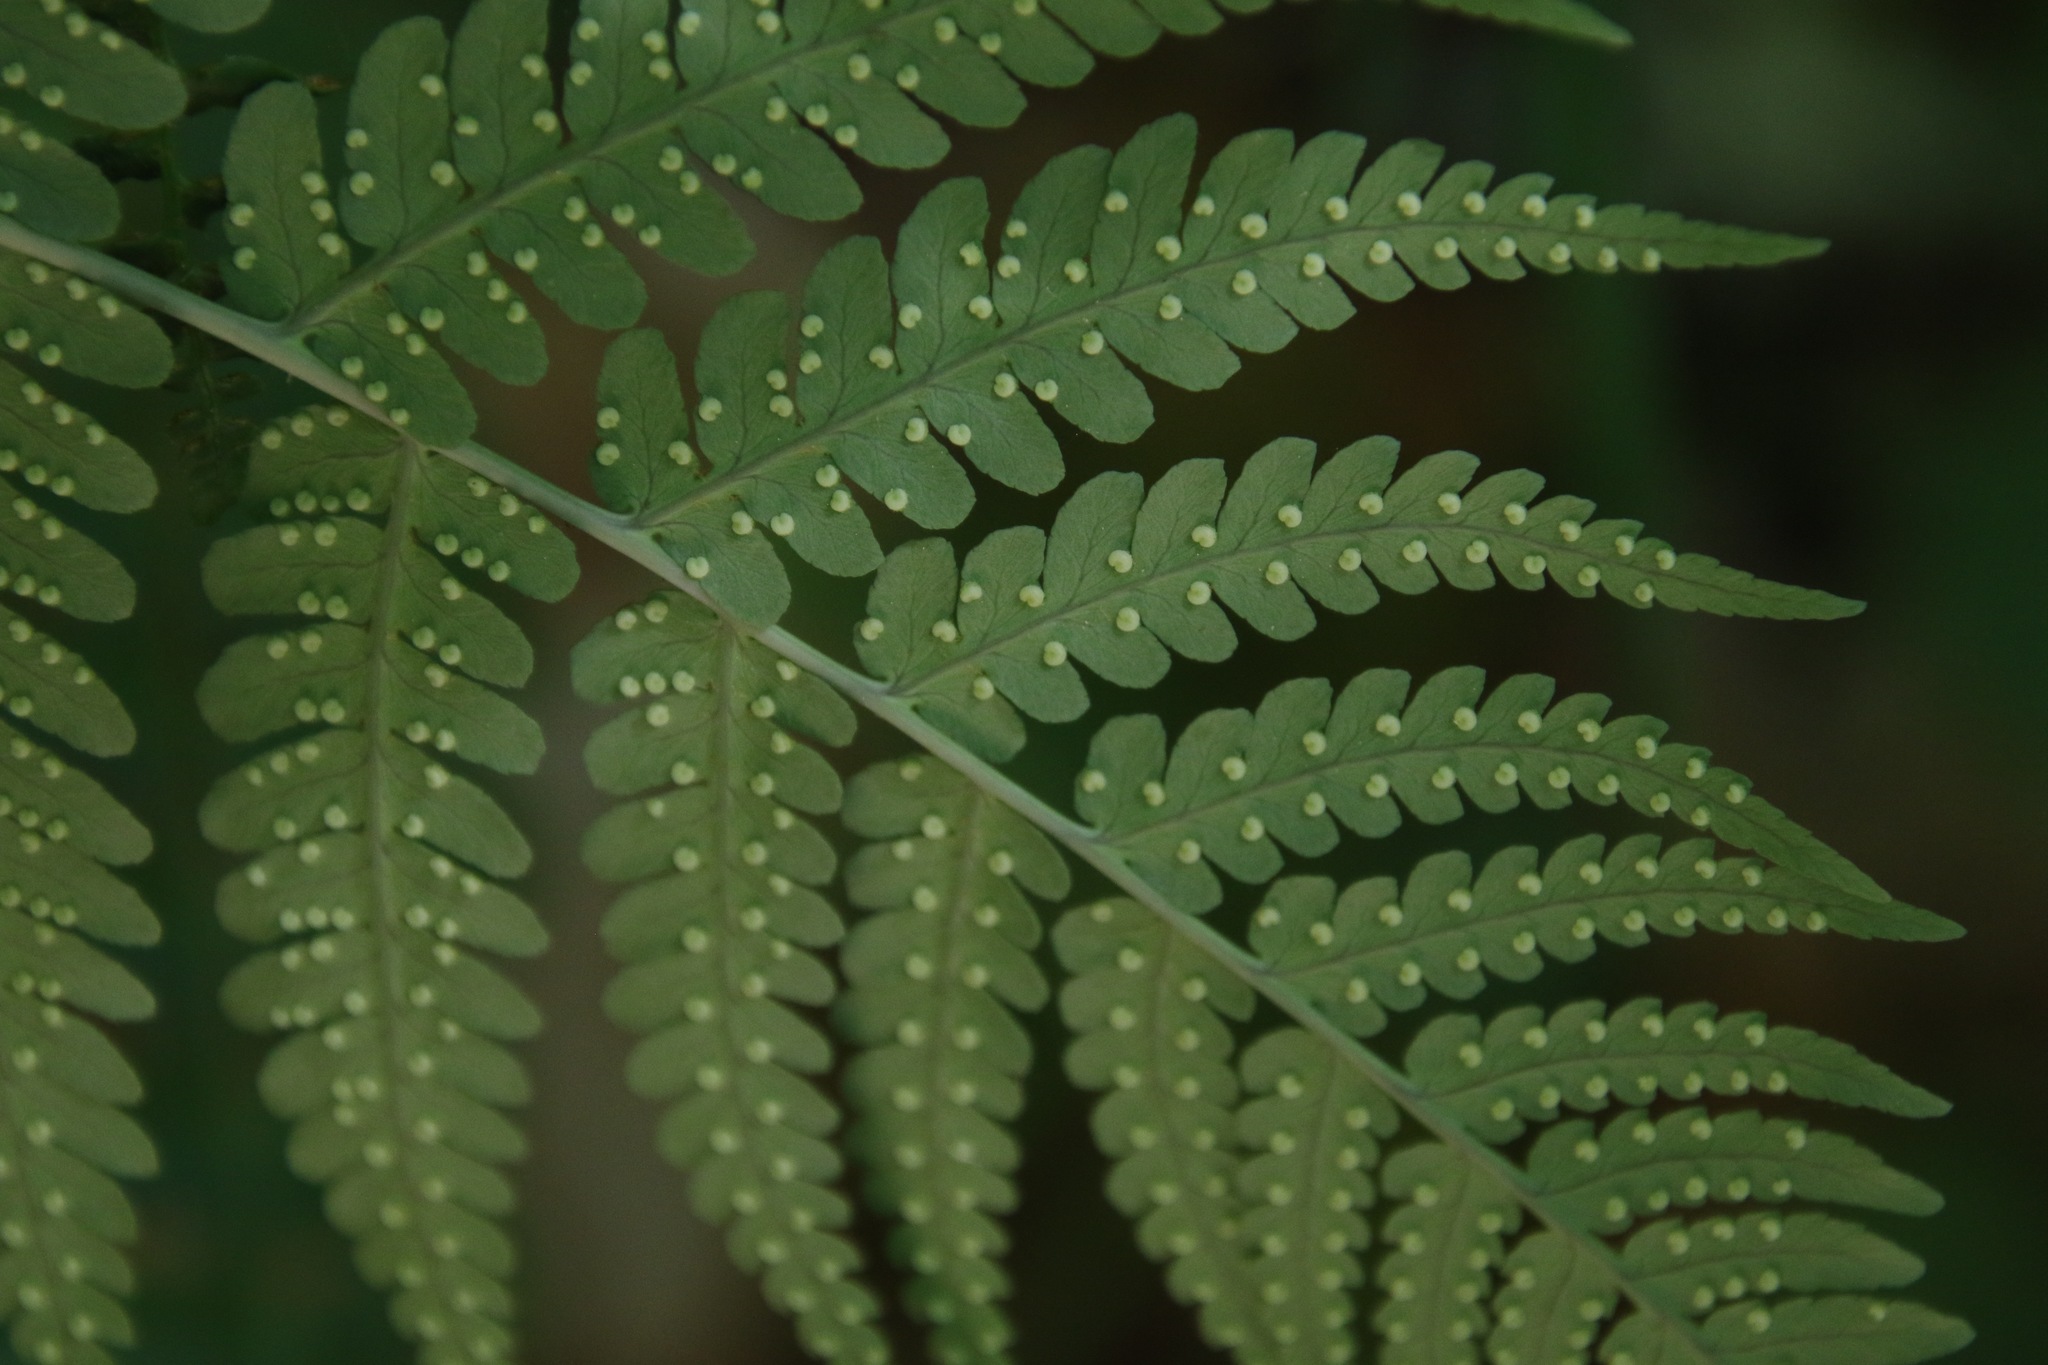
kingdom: Plantae
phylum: Tracheophyta
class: Polypodiopsida
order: Polypodiales
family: Dryopteridaceae
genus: Dryopteris
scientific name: Dryopteris marginalis
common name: Marginal wood fern
